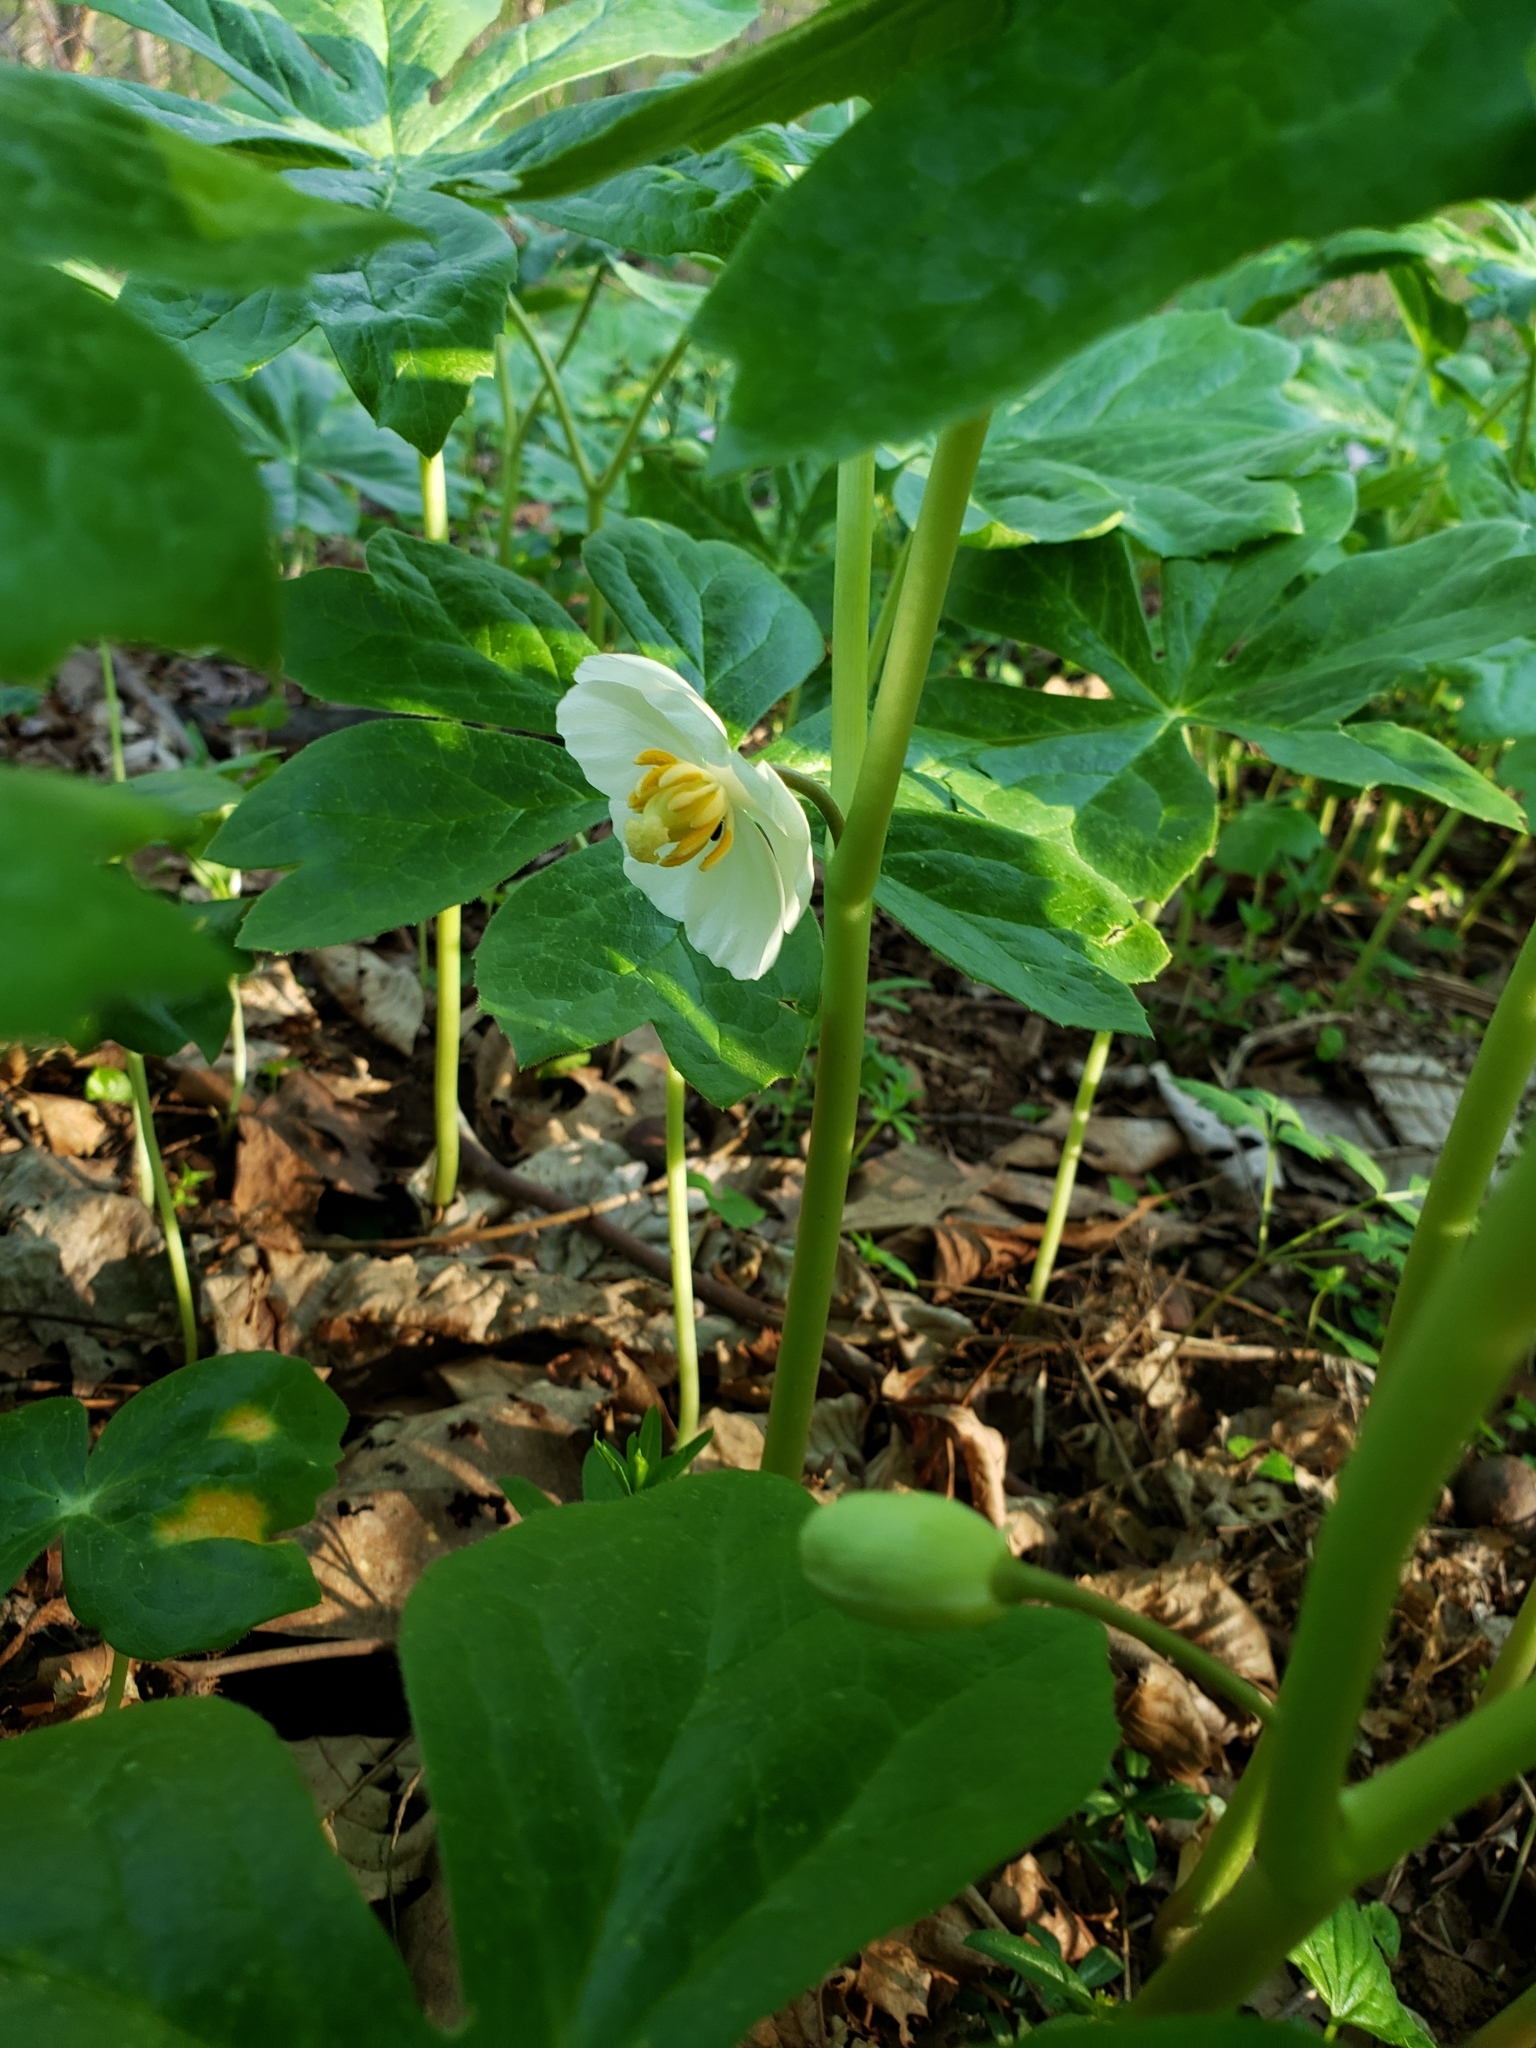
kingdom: Plantae
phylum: Tracheophyta
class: Magnoliopsida
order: Ranunculales
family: Berberidaceae
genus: Podophyllum
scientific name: Podophyllum peltatum
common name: Wild mandrake
